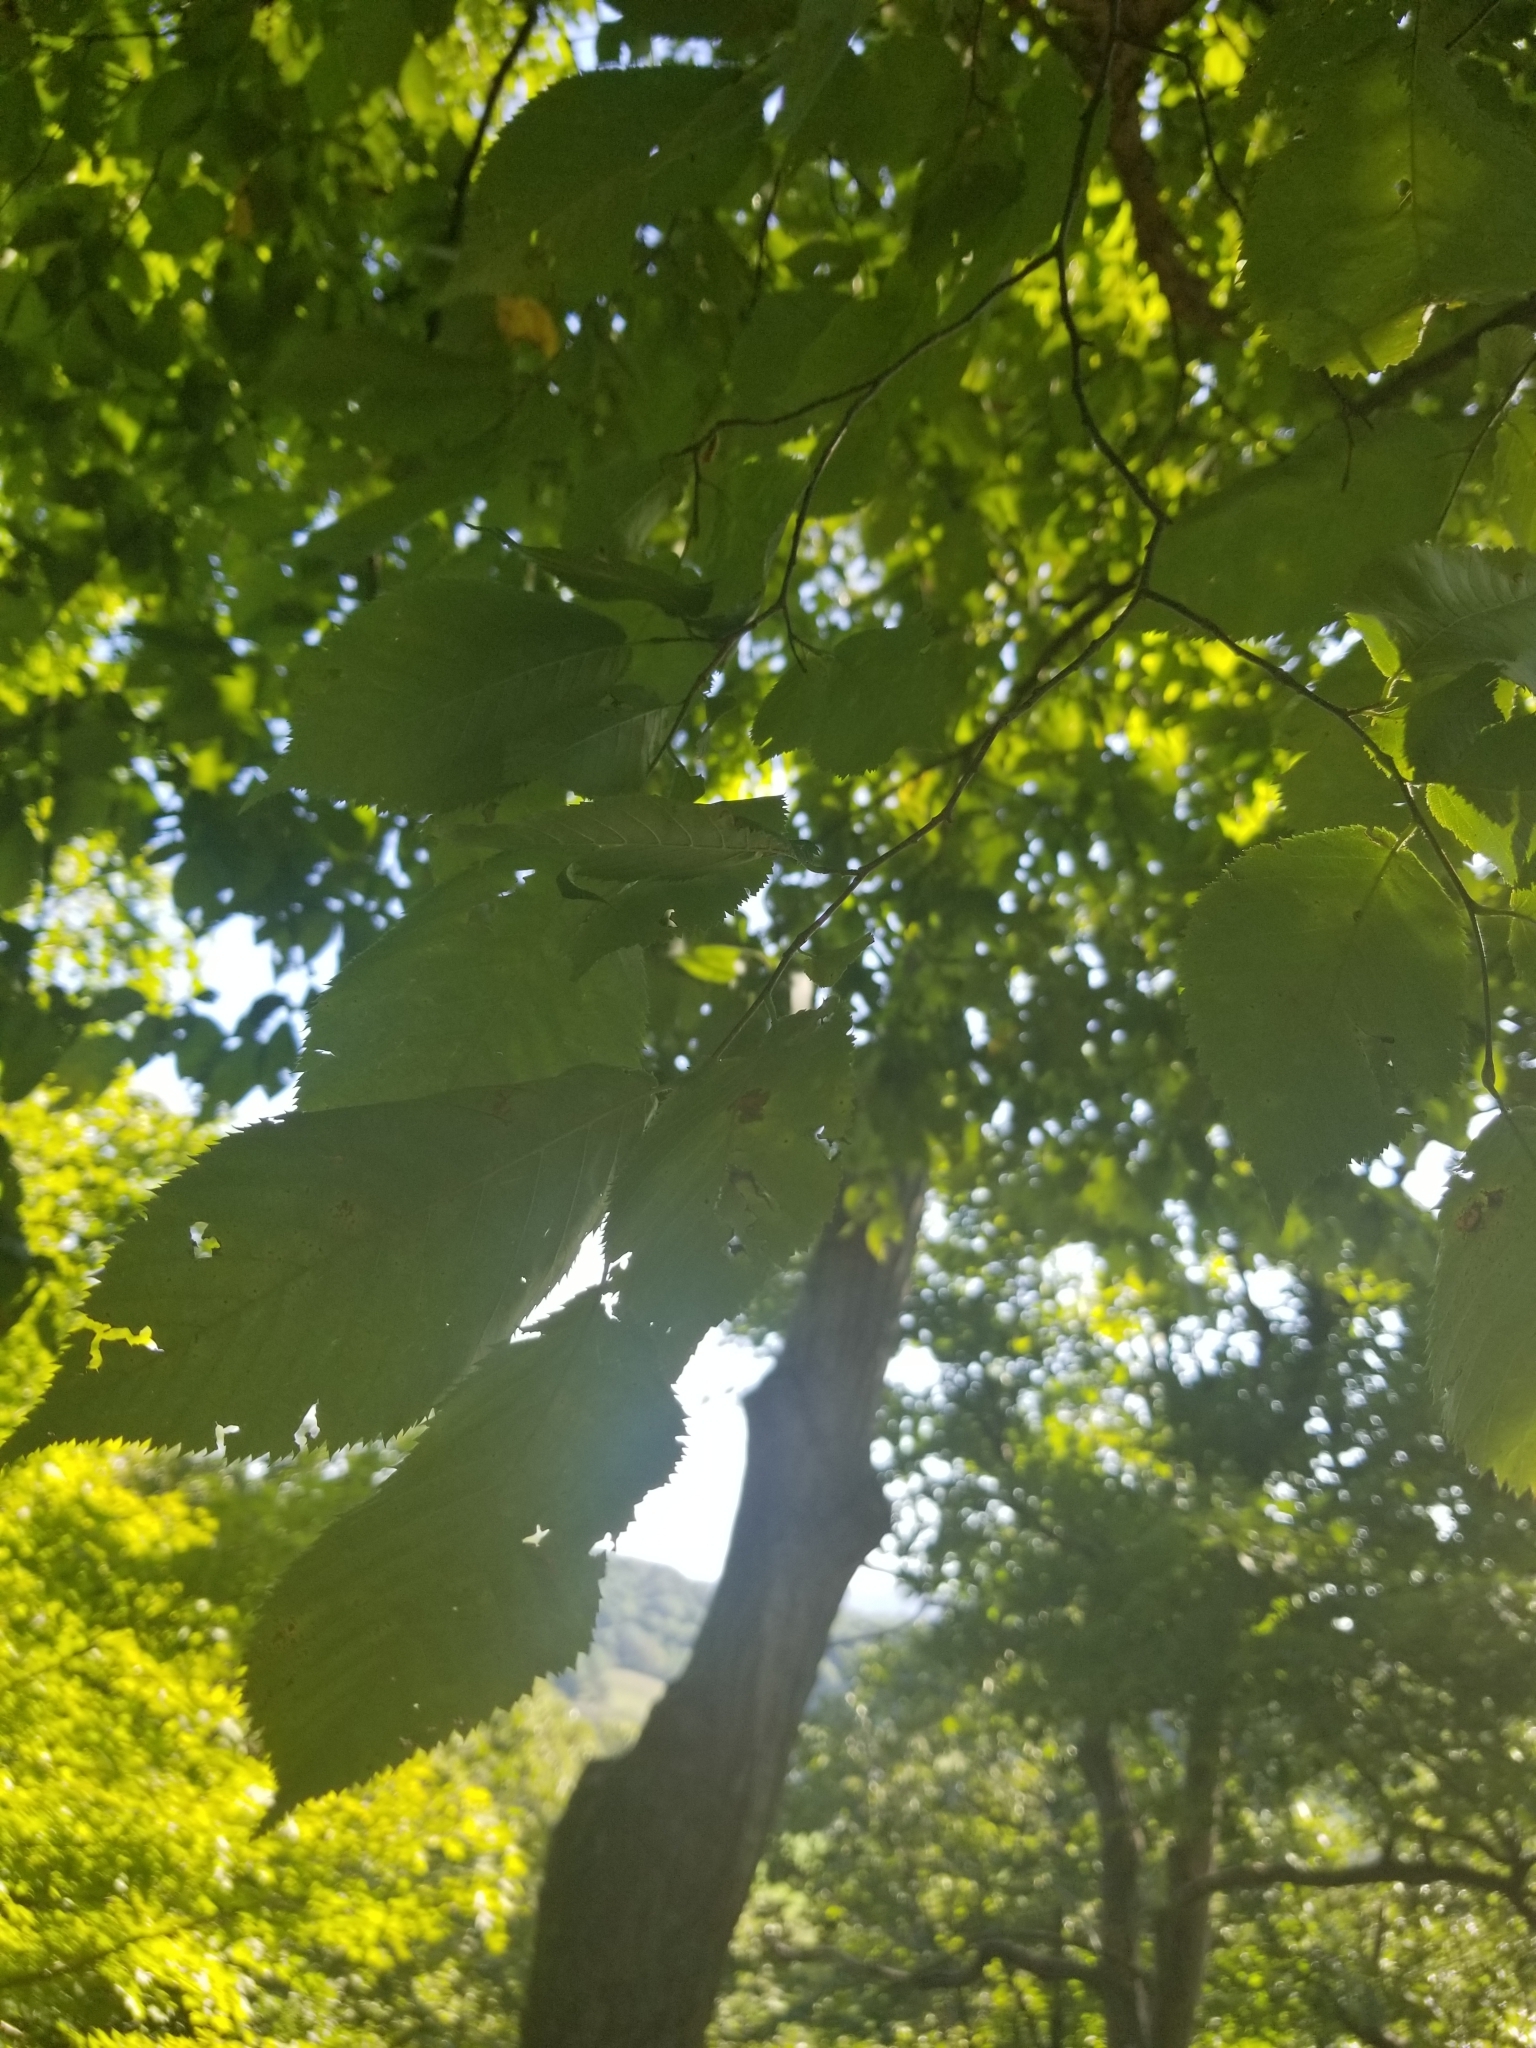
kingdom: Plantae
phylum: Tracheophyta
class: Magnoliopsida
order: Fagales
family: Betulaceae
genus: Ostrya
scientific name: Ostrya virginiana
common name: Ironwood
